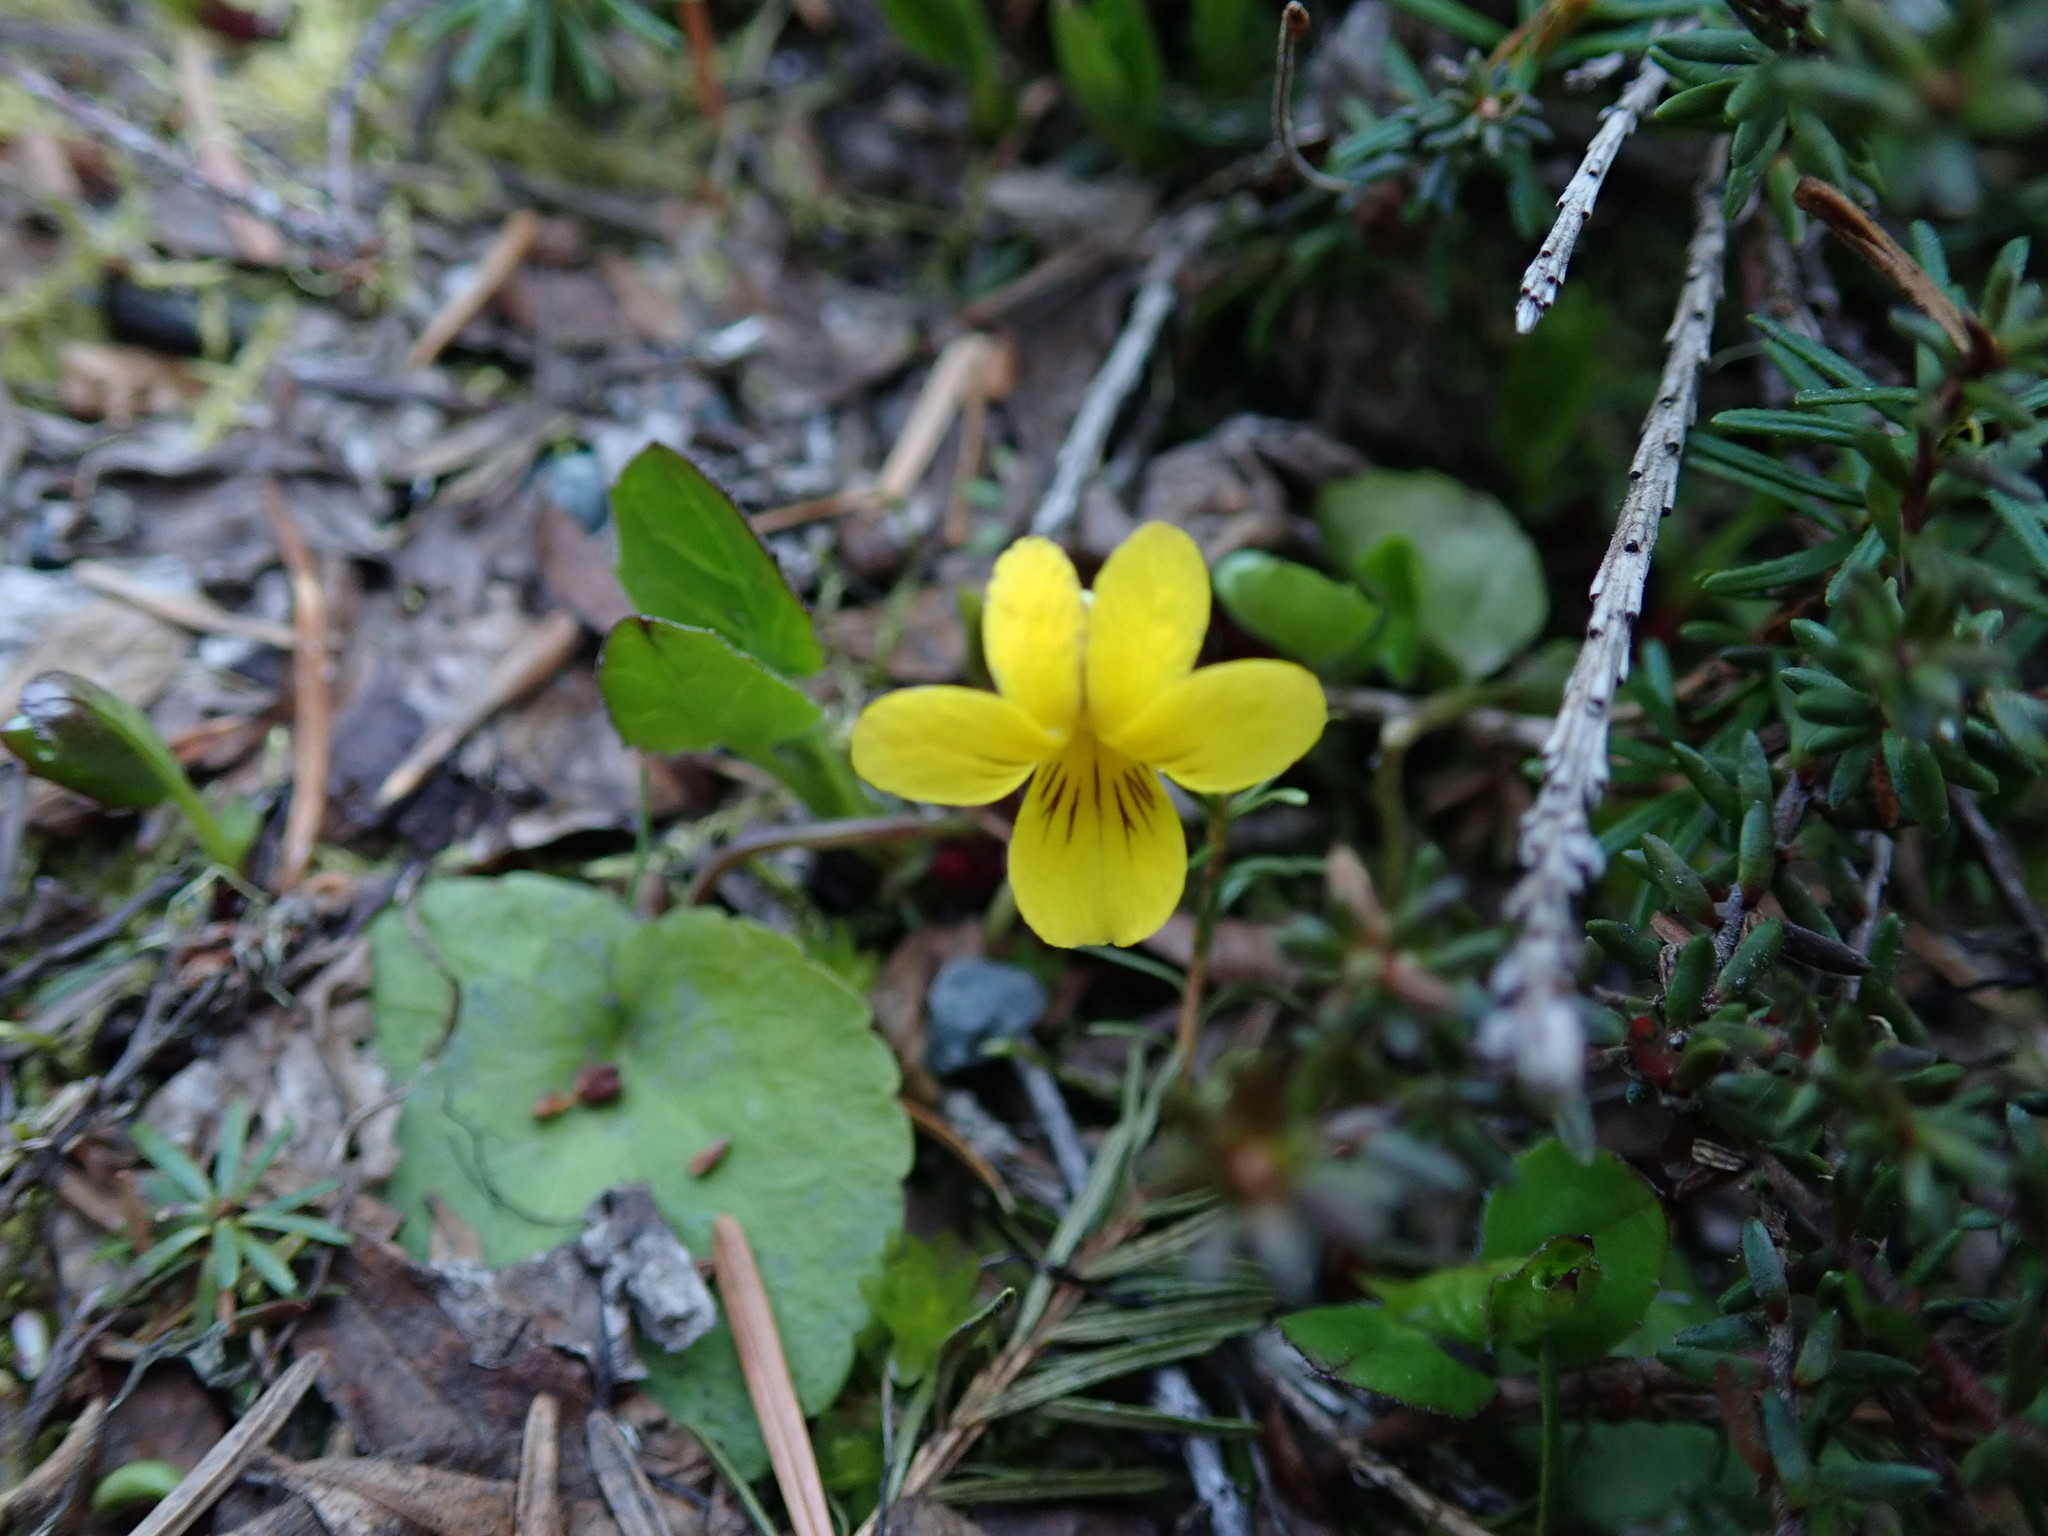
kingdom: Plantae
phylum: Tracheophyta
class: Magnoliopsida
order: Malpighiales
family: Violaceae
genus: Viola
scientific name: Viola orbiculata
